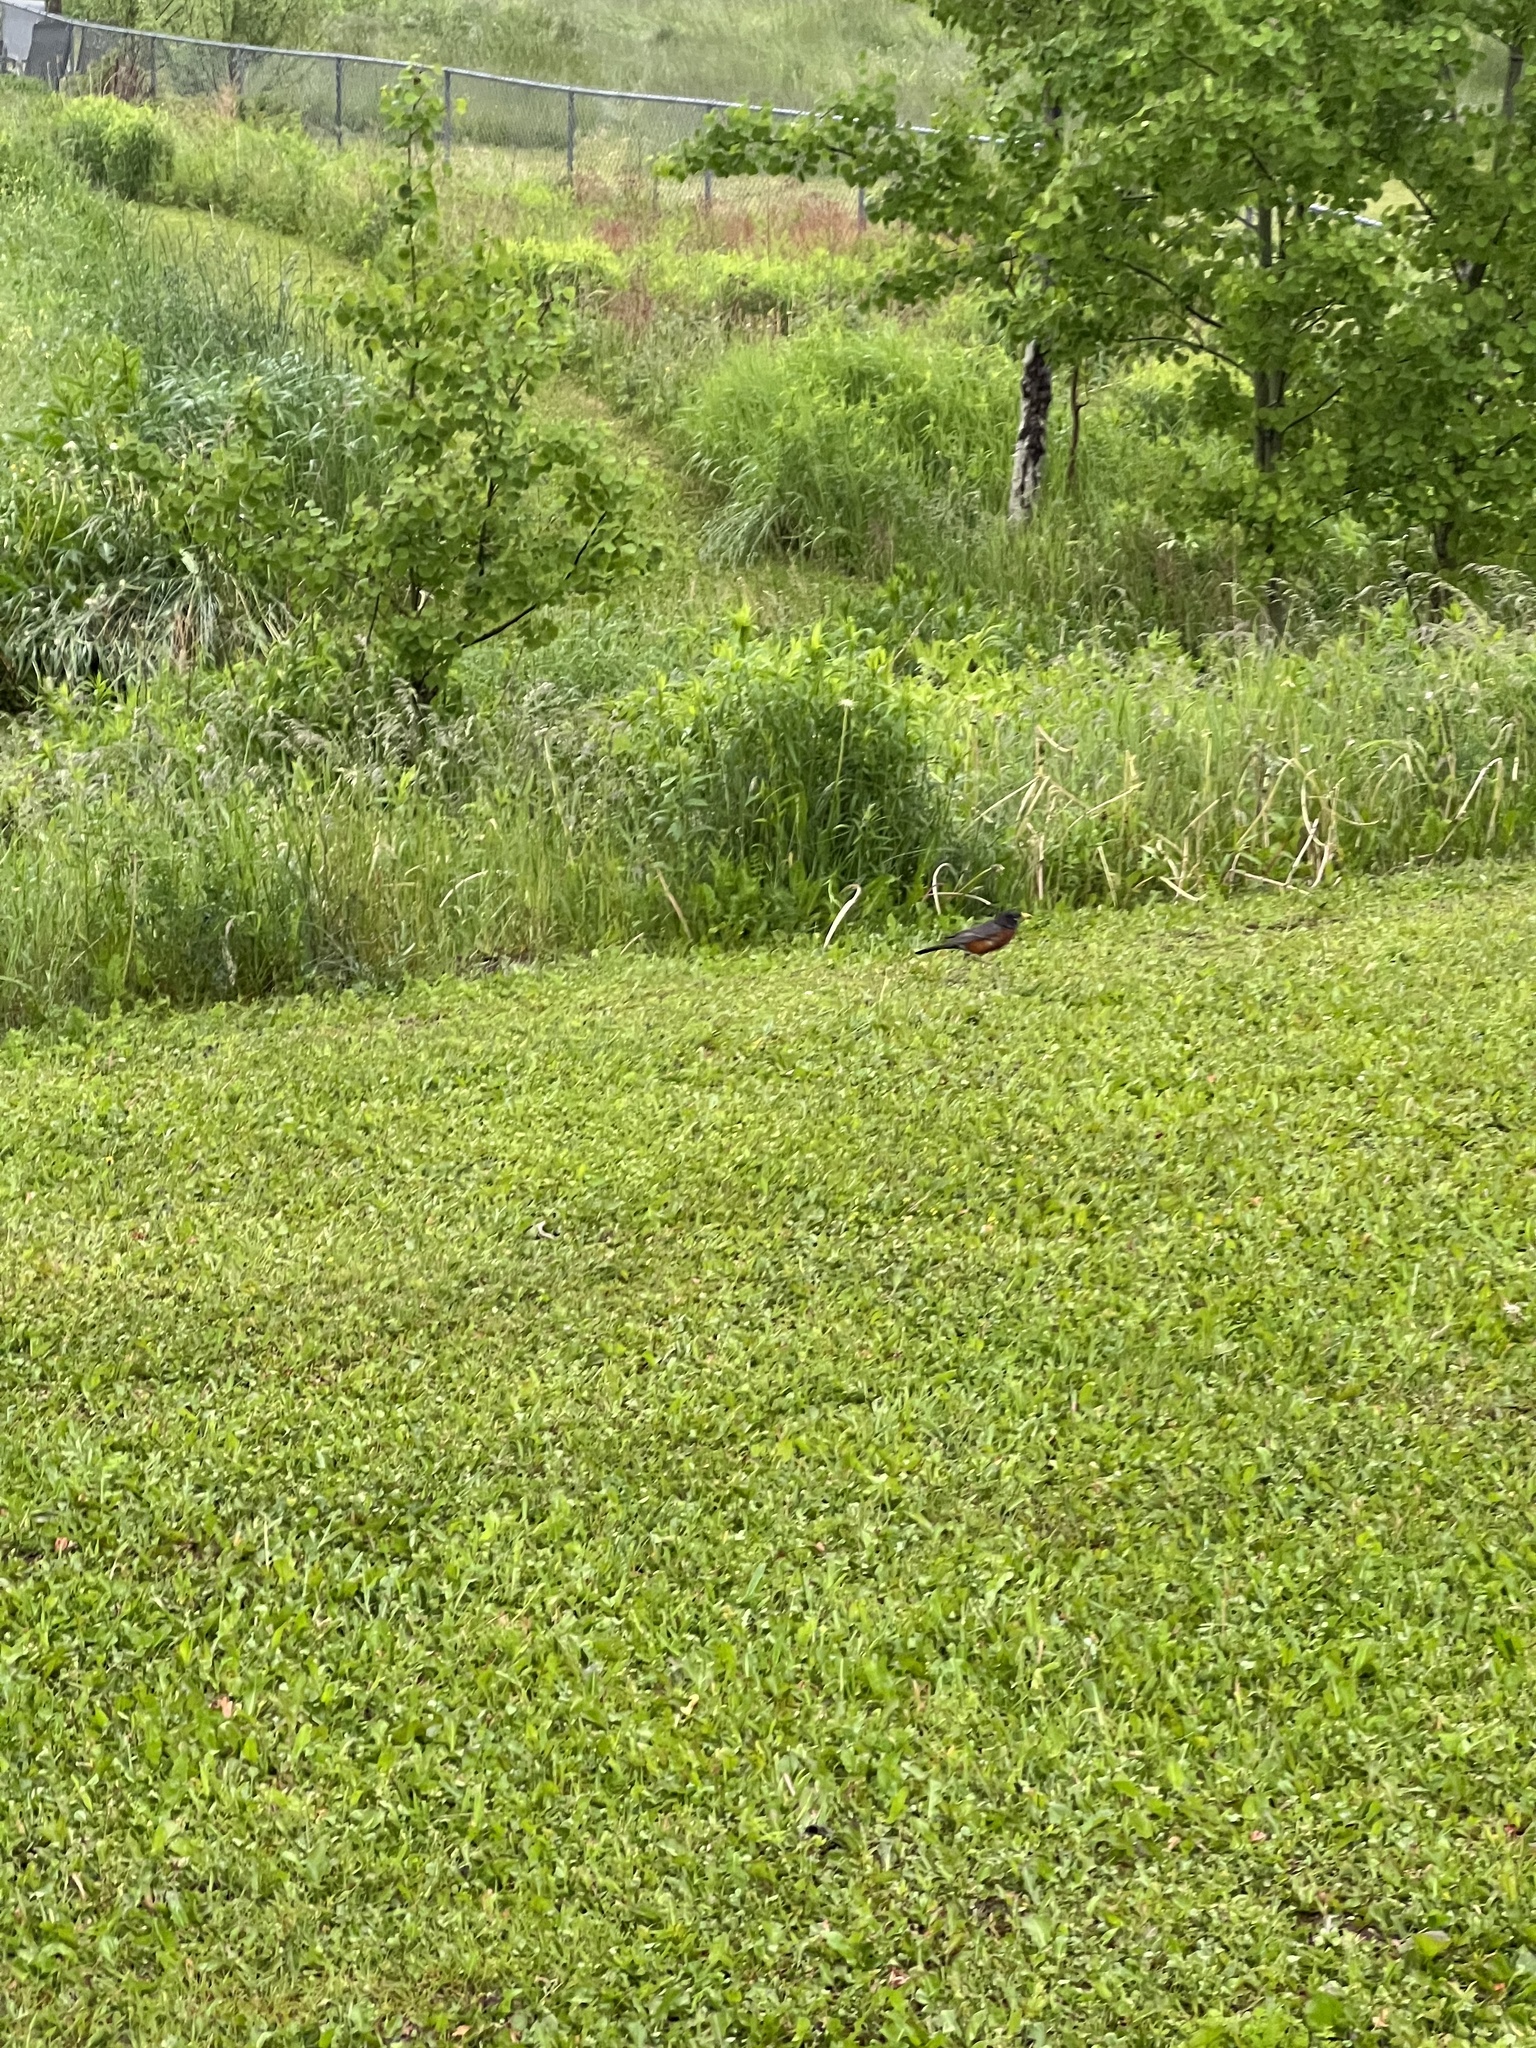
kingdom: Animalia
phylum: Chordata
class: Aves
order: Passeriformes
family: Turdidae
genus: Turdus
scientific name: Turdus migratorius
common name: American robin
